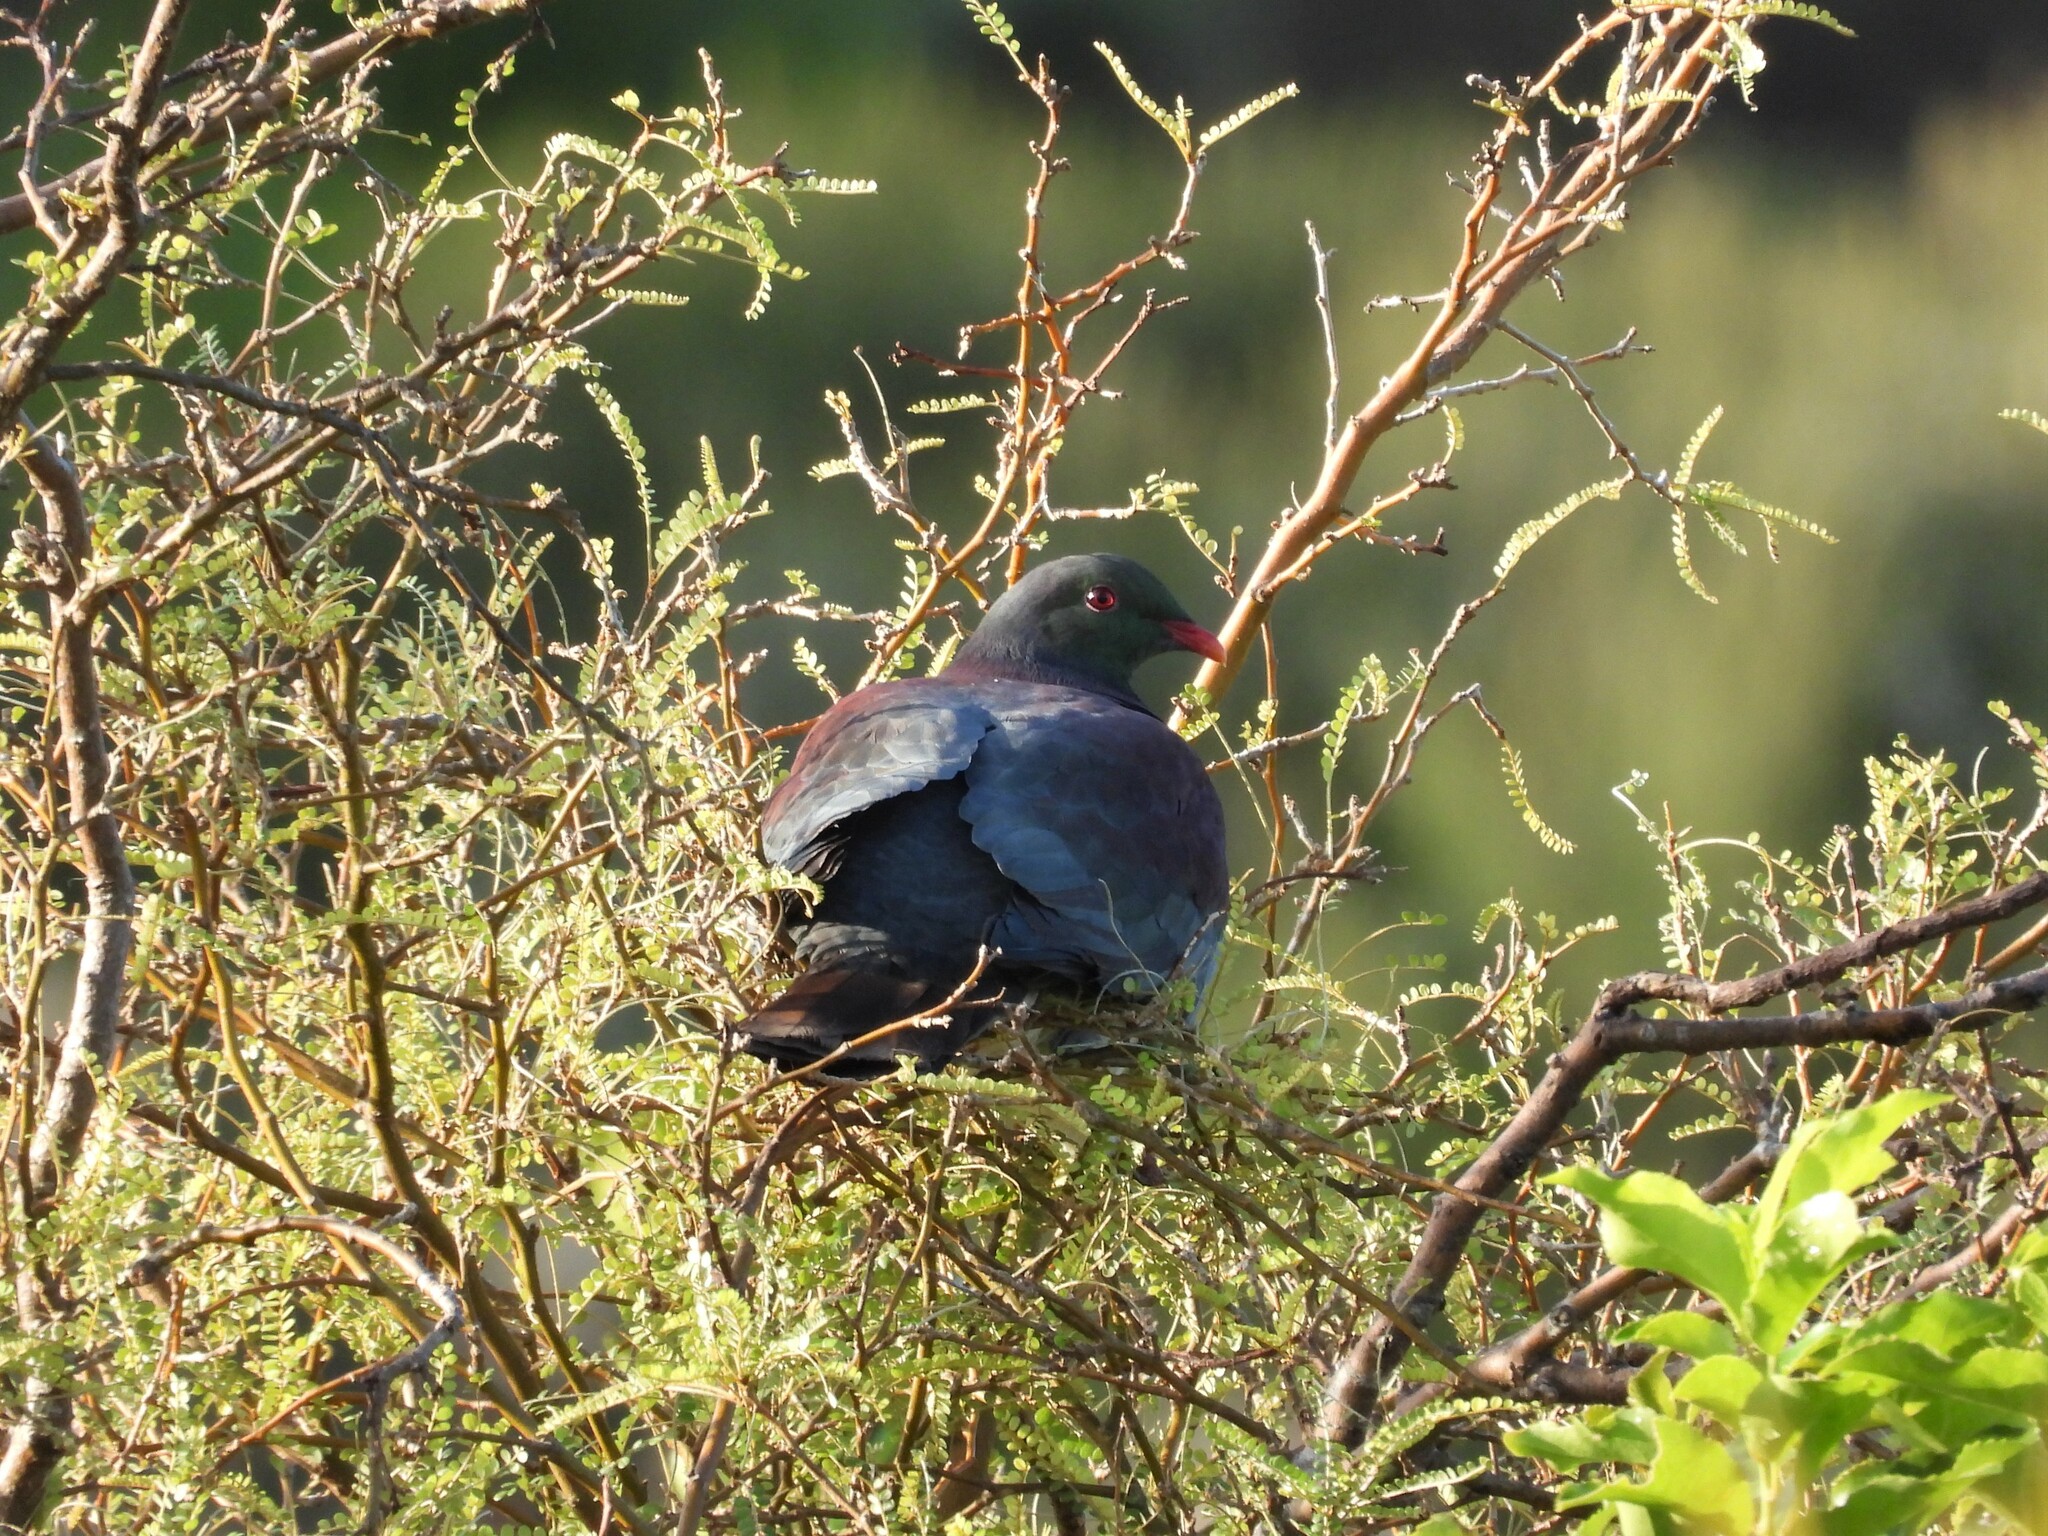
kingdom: Animalia
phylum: Chordata
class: Aves
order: Columbiformes
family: Columbidae
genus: Hemiphaga
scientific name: Hemiphaga novaeseelandiae
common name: New zealand pigeon
